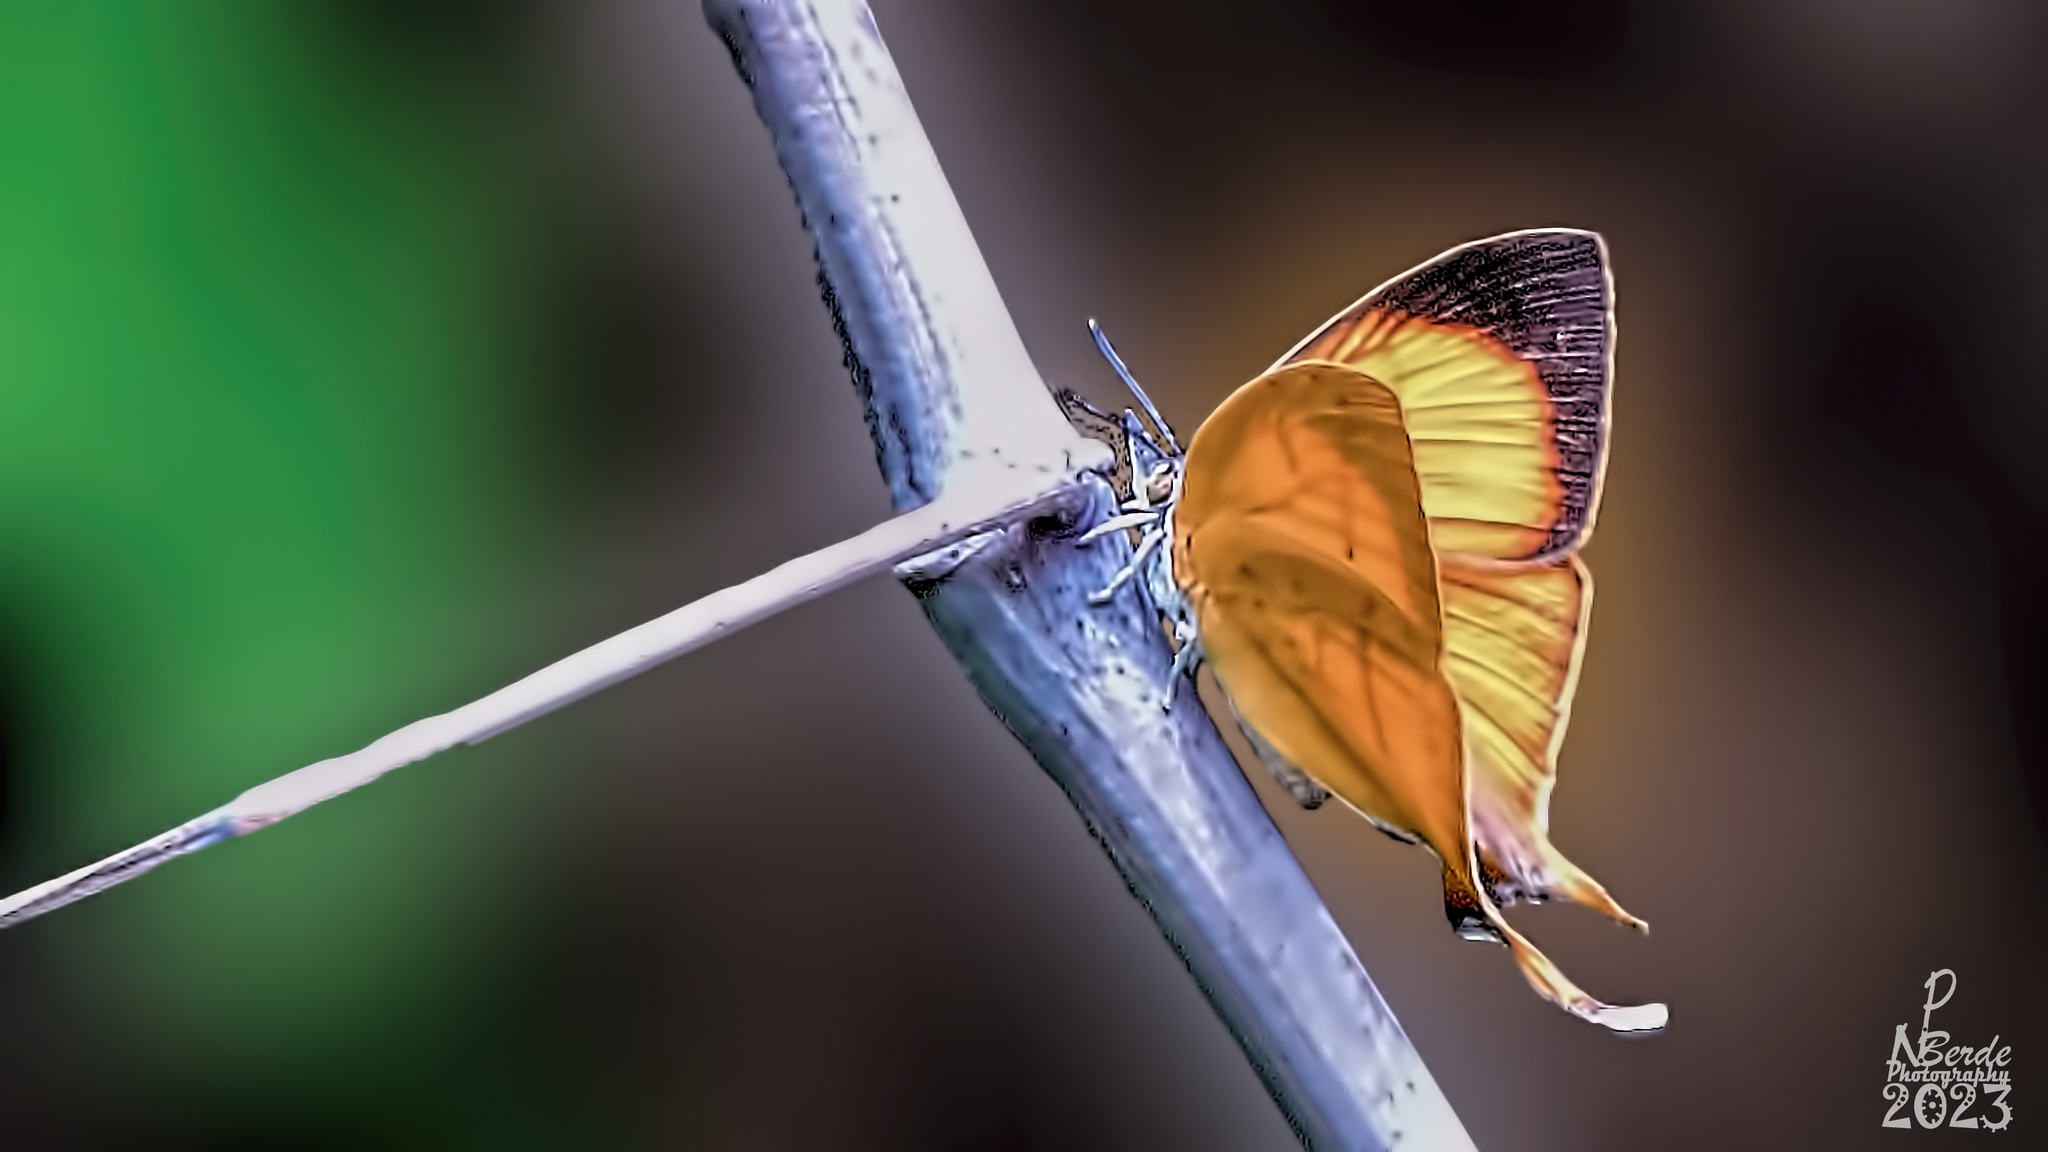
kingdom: Animalia
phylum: Arthropoda
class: Insecta
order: Lepidoptera
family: Lycaenidae
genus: Loxura
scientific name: Loxura atymnus
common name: Common yamfly
